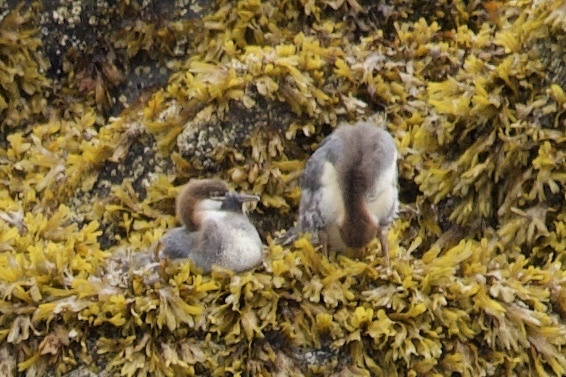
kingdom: Animalia
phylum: Chordata
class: Aves
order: Anseriformes
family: Anatidae
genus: Mergus
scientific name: Mergus merganser
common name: Common merganser
